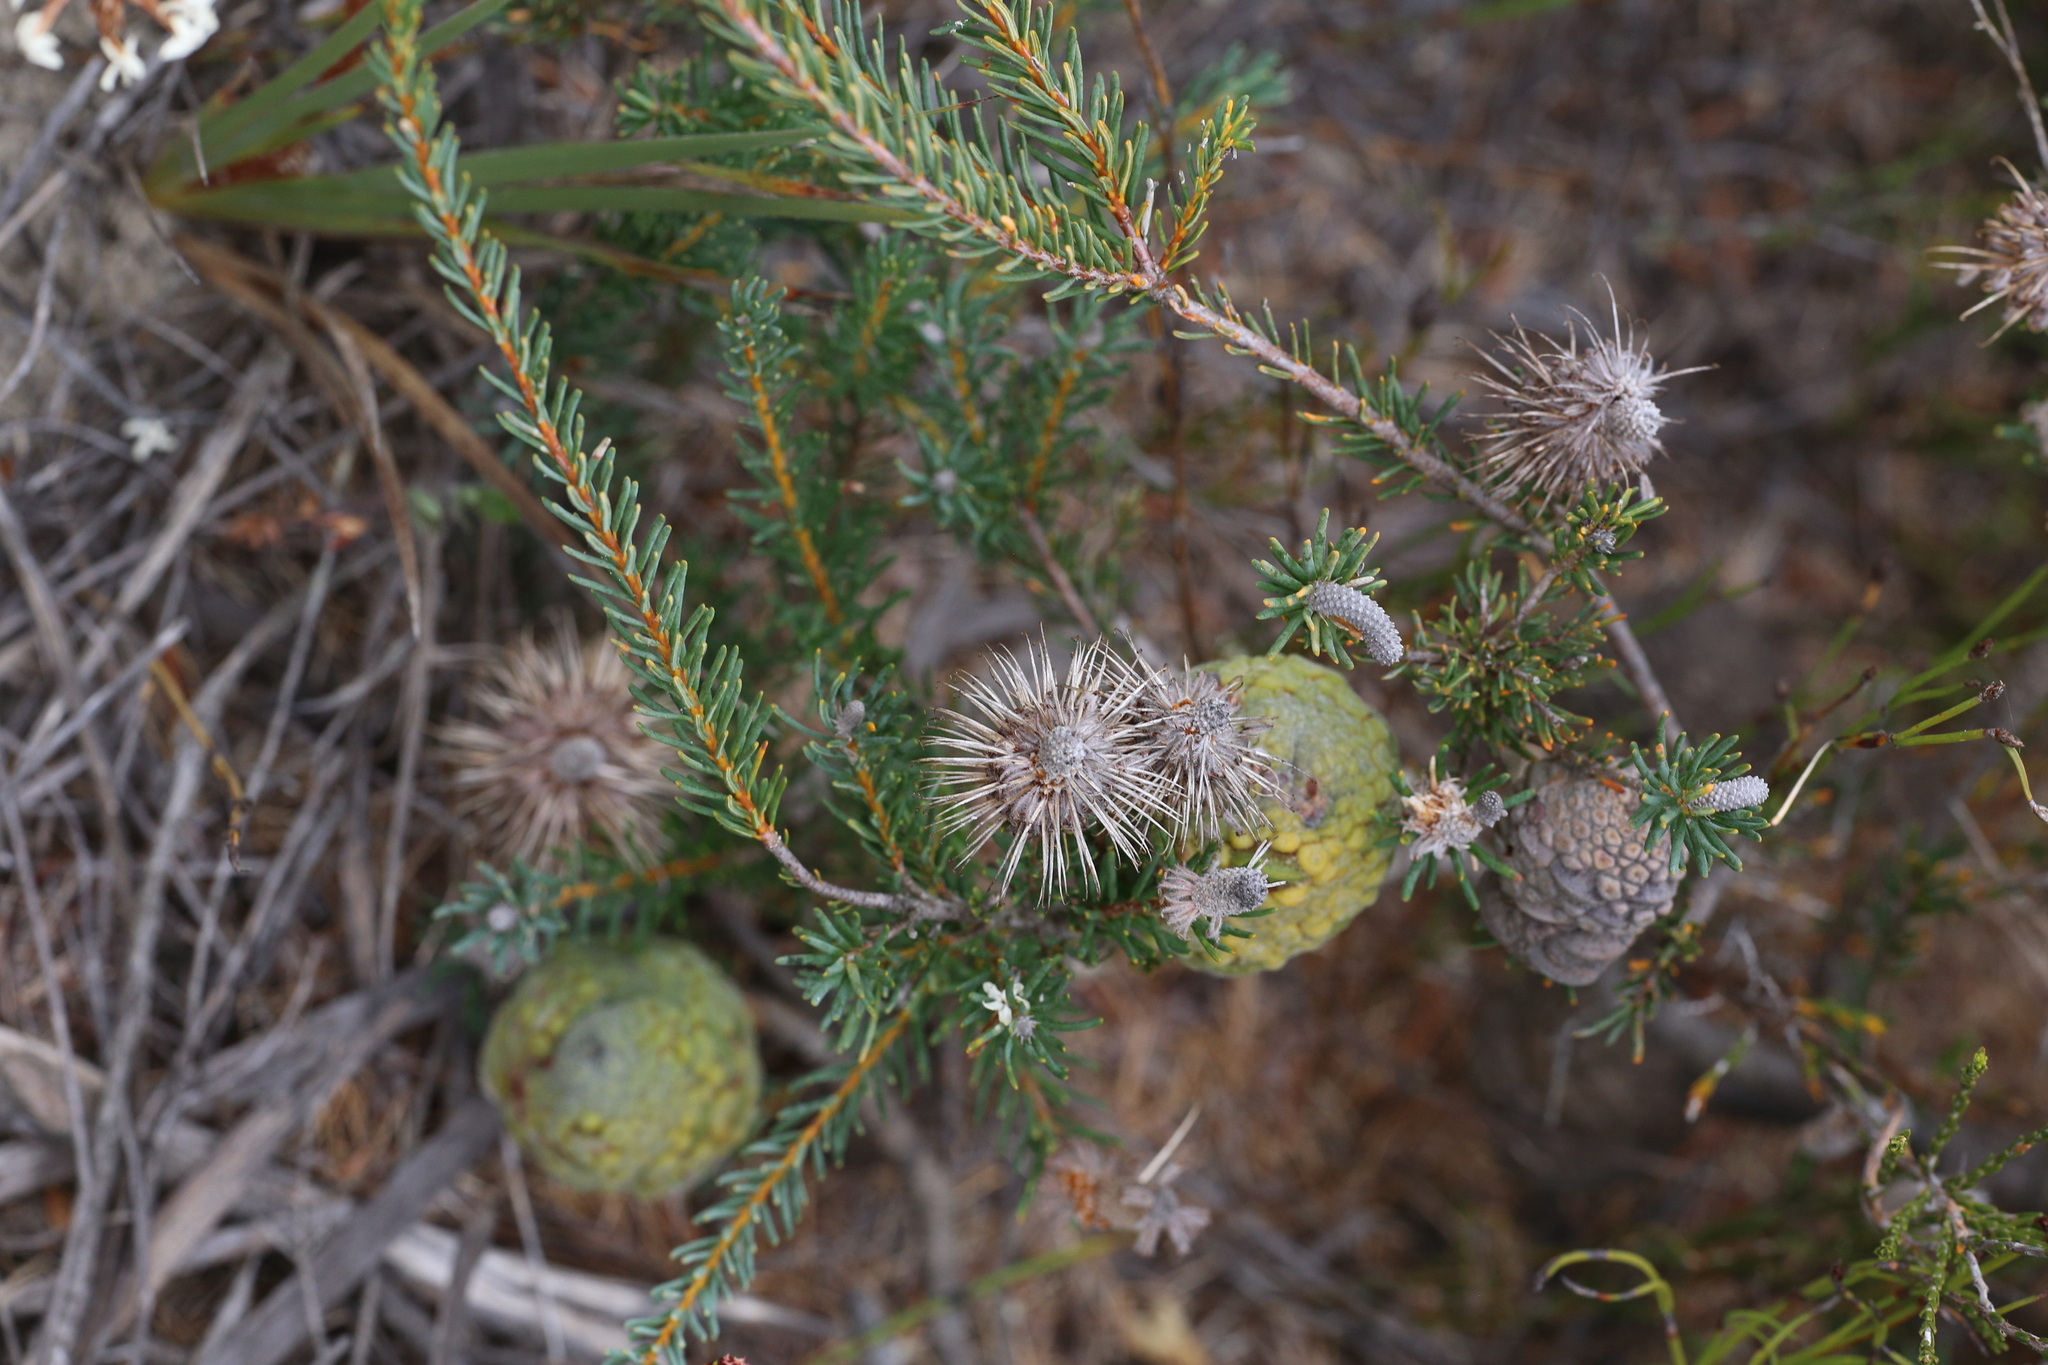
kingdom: Plantae
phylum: Tracheophyta
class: Magnoliopsida
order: Proteales
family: Proteaceae
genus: Banksia
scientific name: Banksia pulchella
